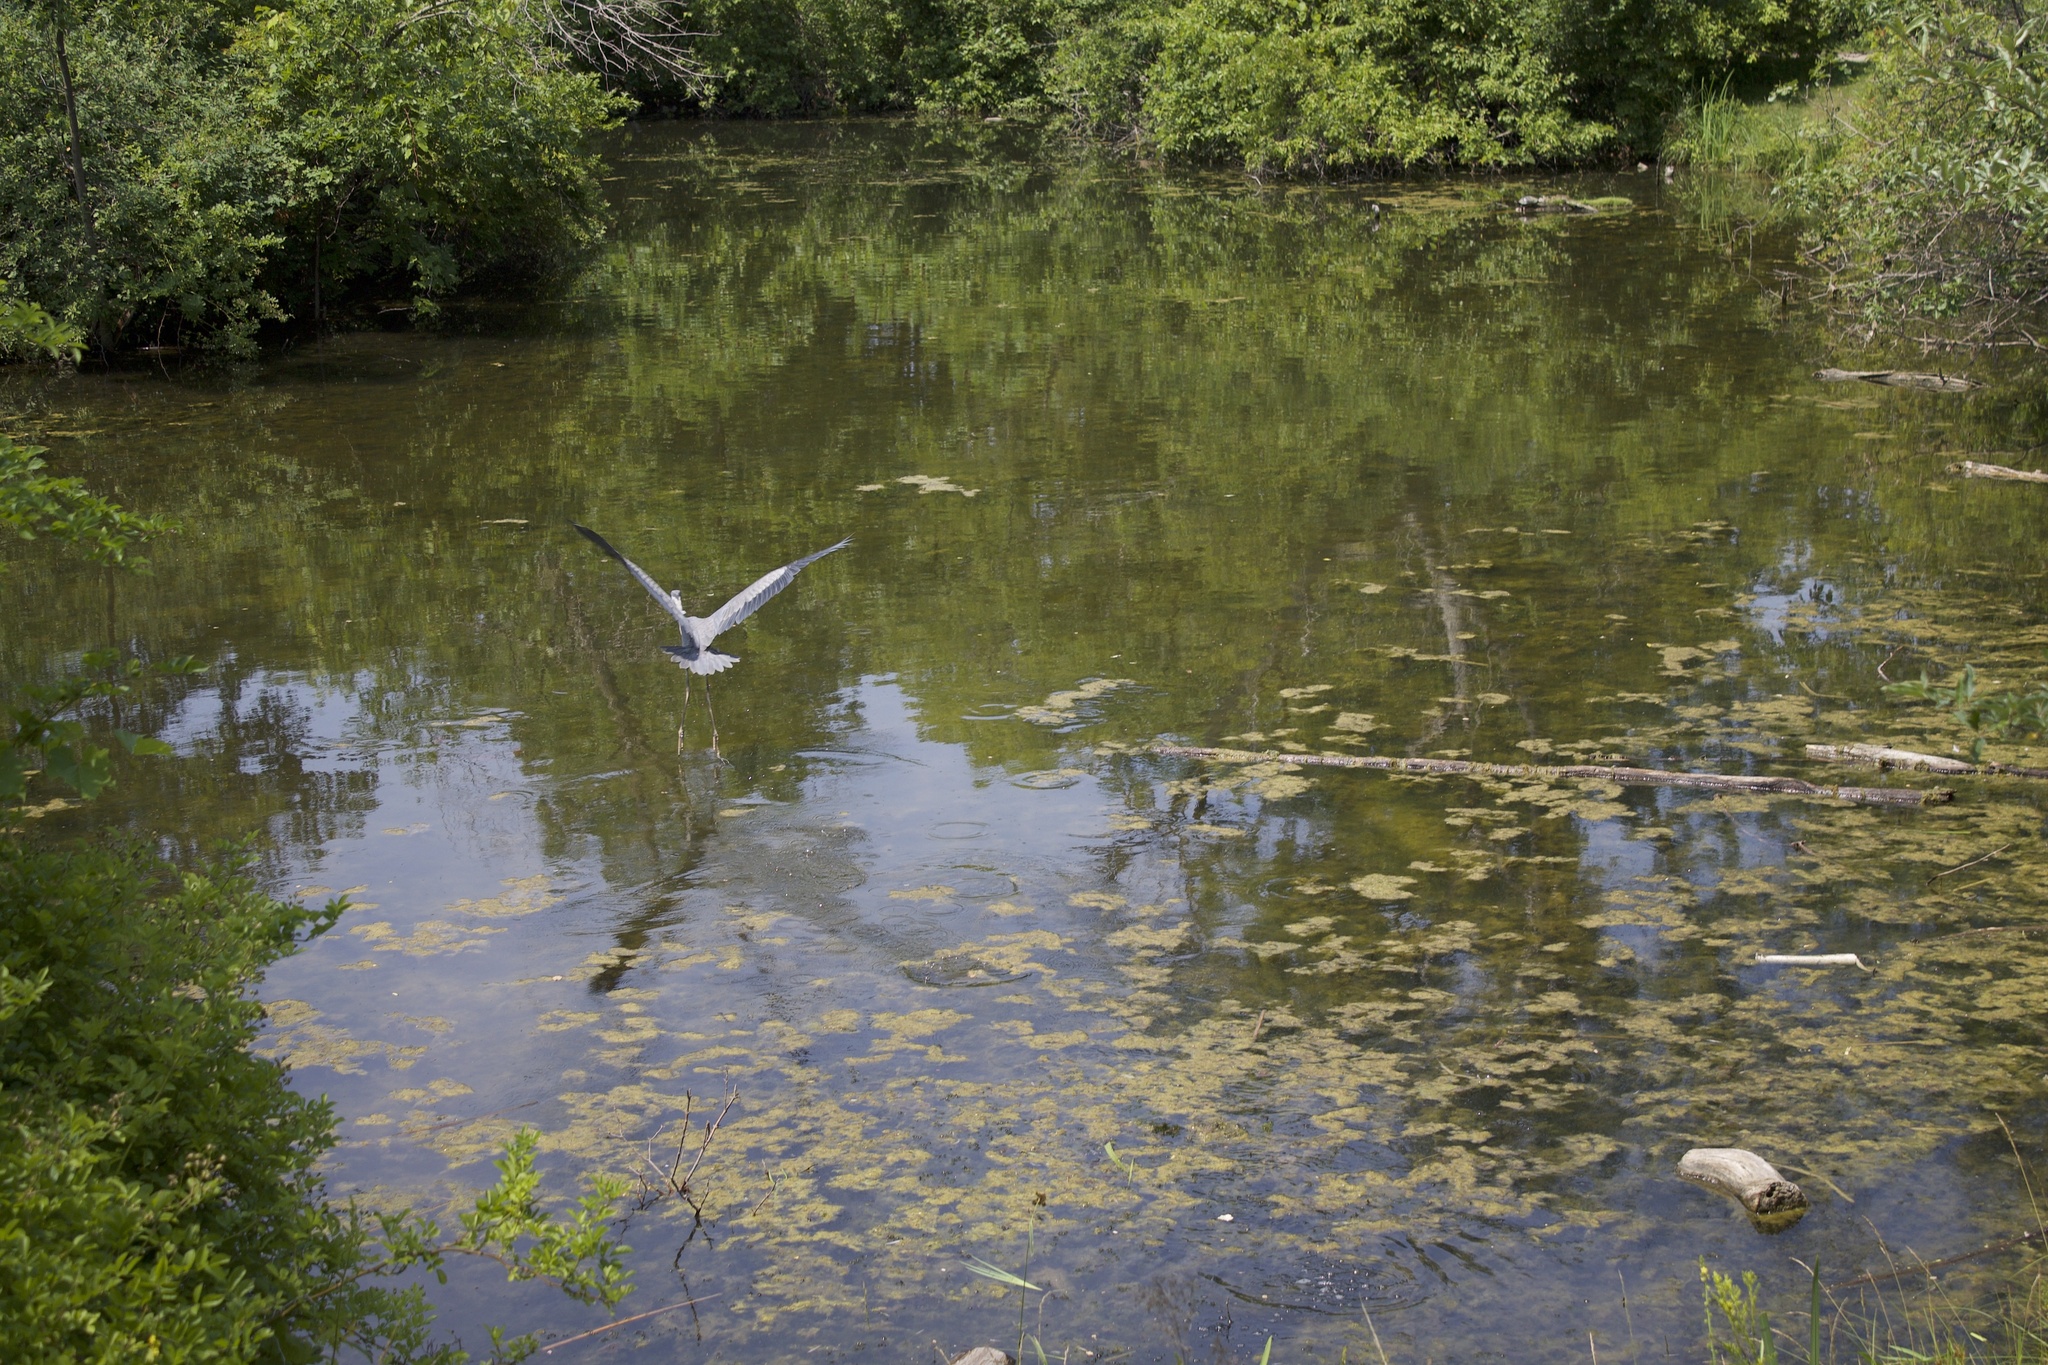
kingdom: Animalia
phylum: Chordata
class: Aves
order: Pelecaniformes
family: Ardeidae
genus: Ardea
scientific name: Ardea herodias
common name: Great blue heron
